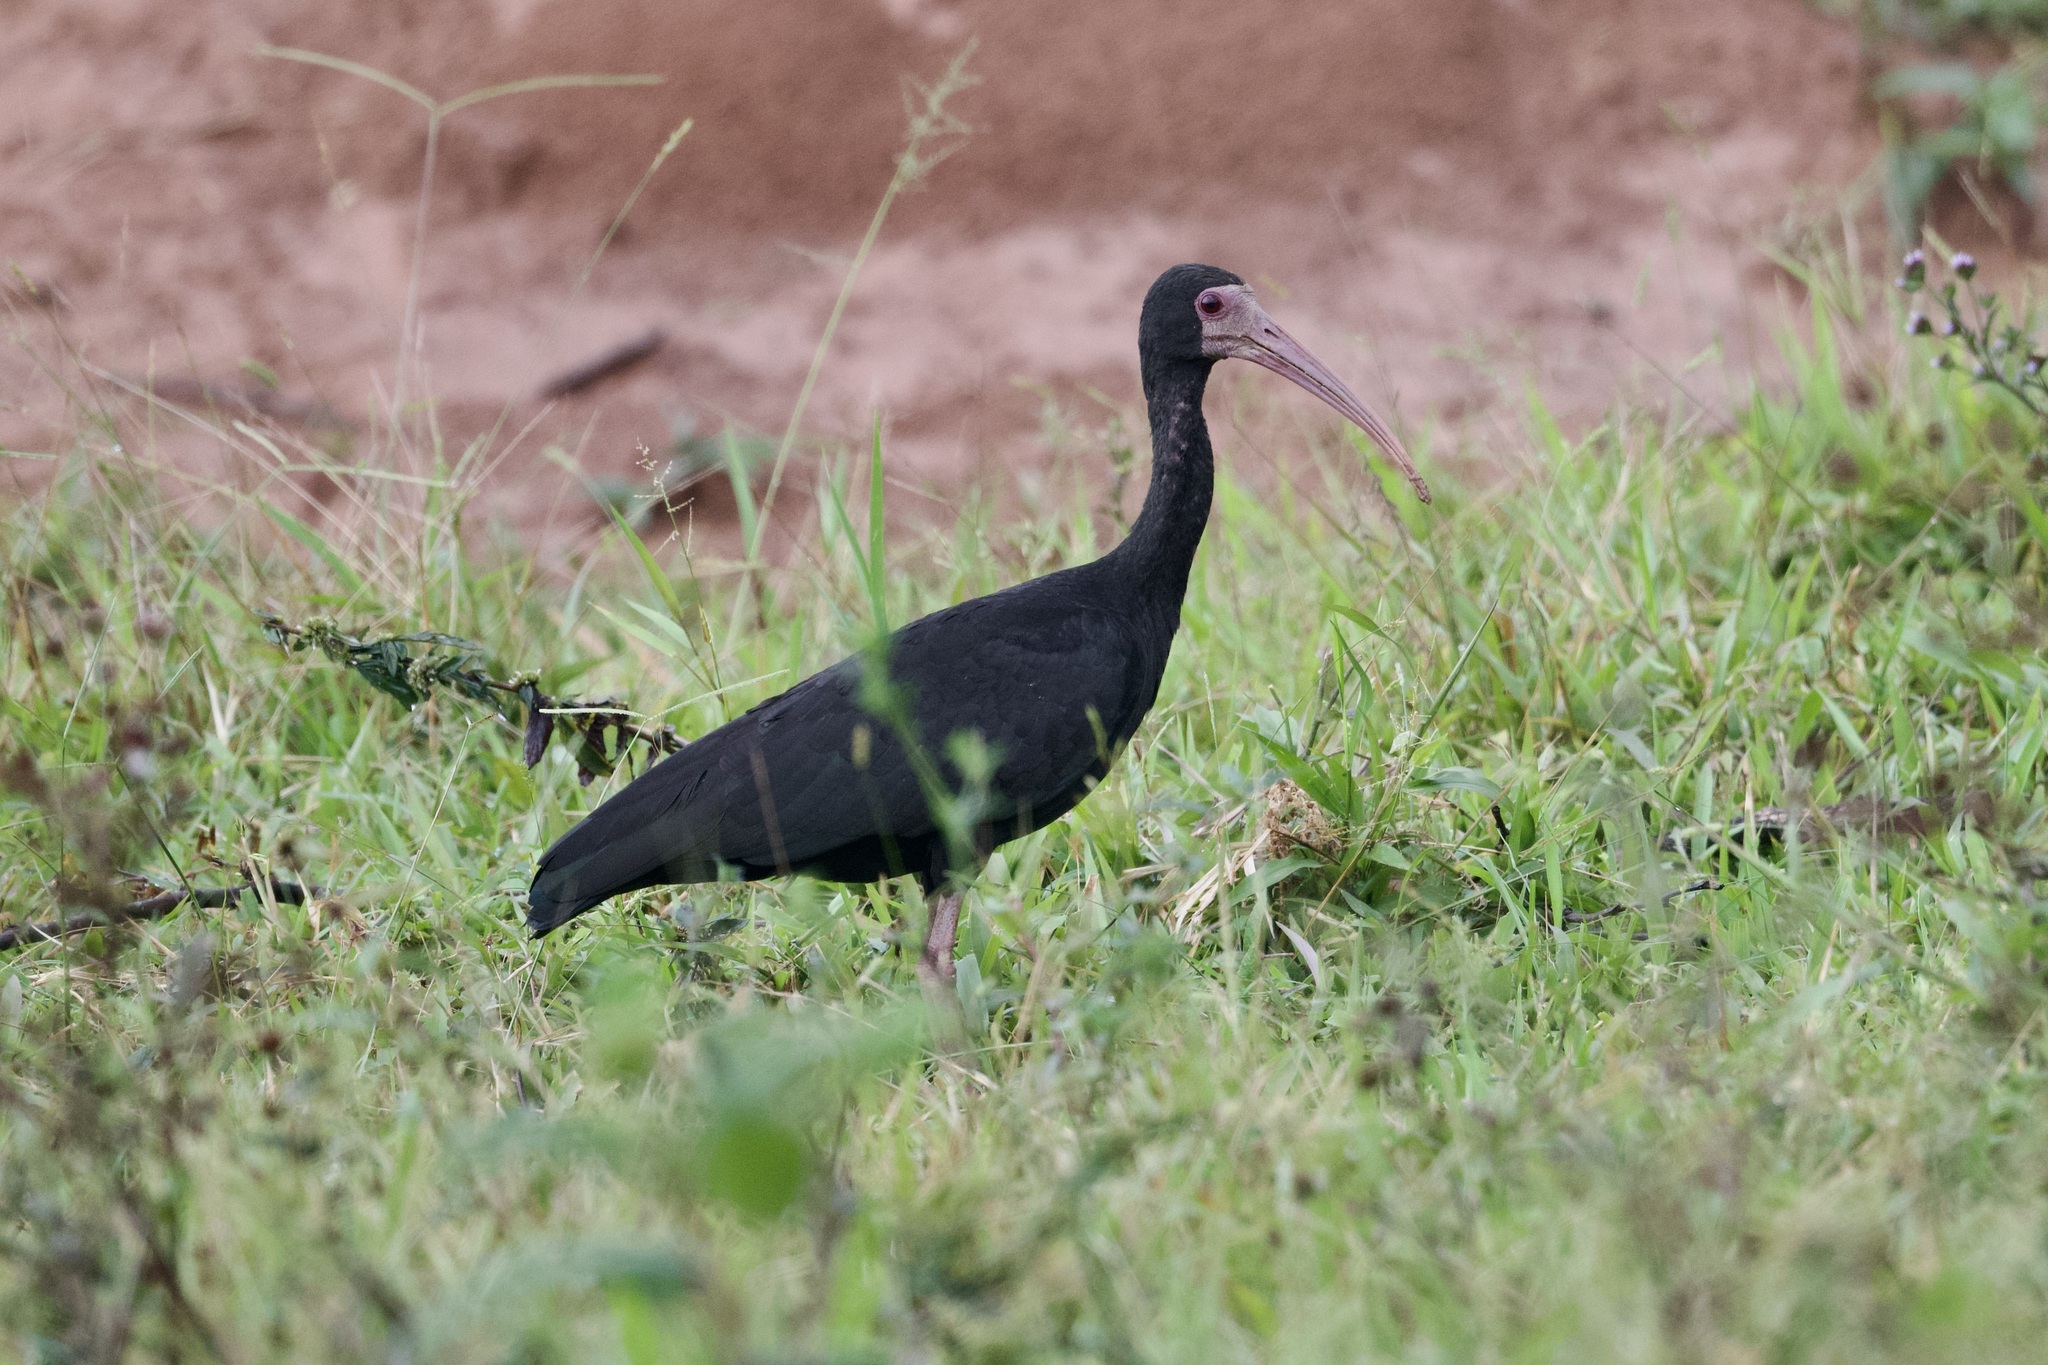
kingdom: Animalia
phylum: Chordata
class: Aves
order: Pelecaniformes
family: Threskiornithidae
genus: Phimosus
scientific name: Phimosus infuscatus
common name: Bare-faced ibis
